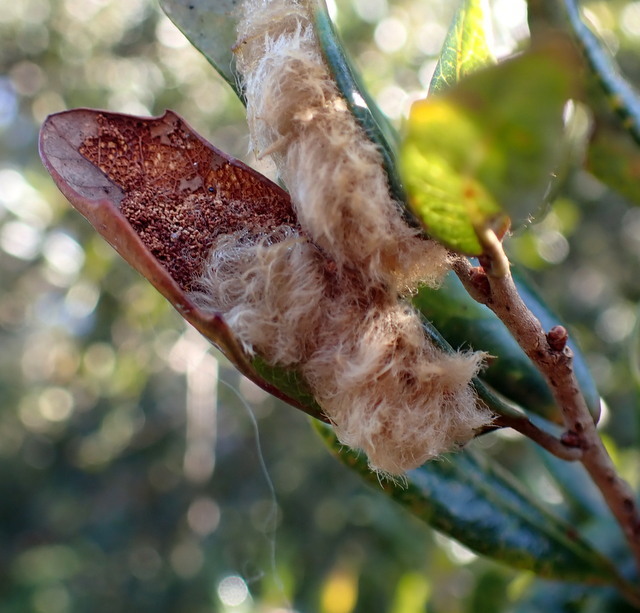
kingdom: Animalia
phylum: Arthropoda
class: Insecta
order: Hymenoptera
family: Cynipidae
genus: Andricus
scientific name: Andricus Druon quercuslanigerum
